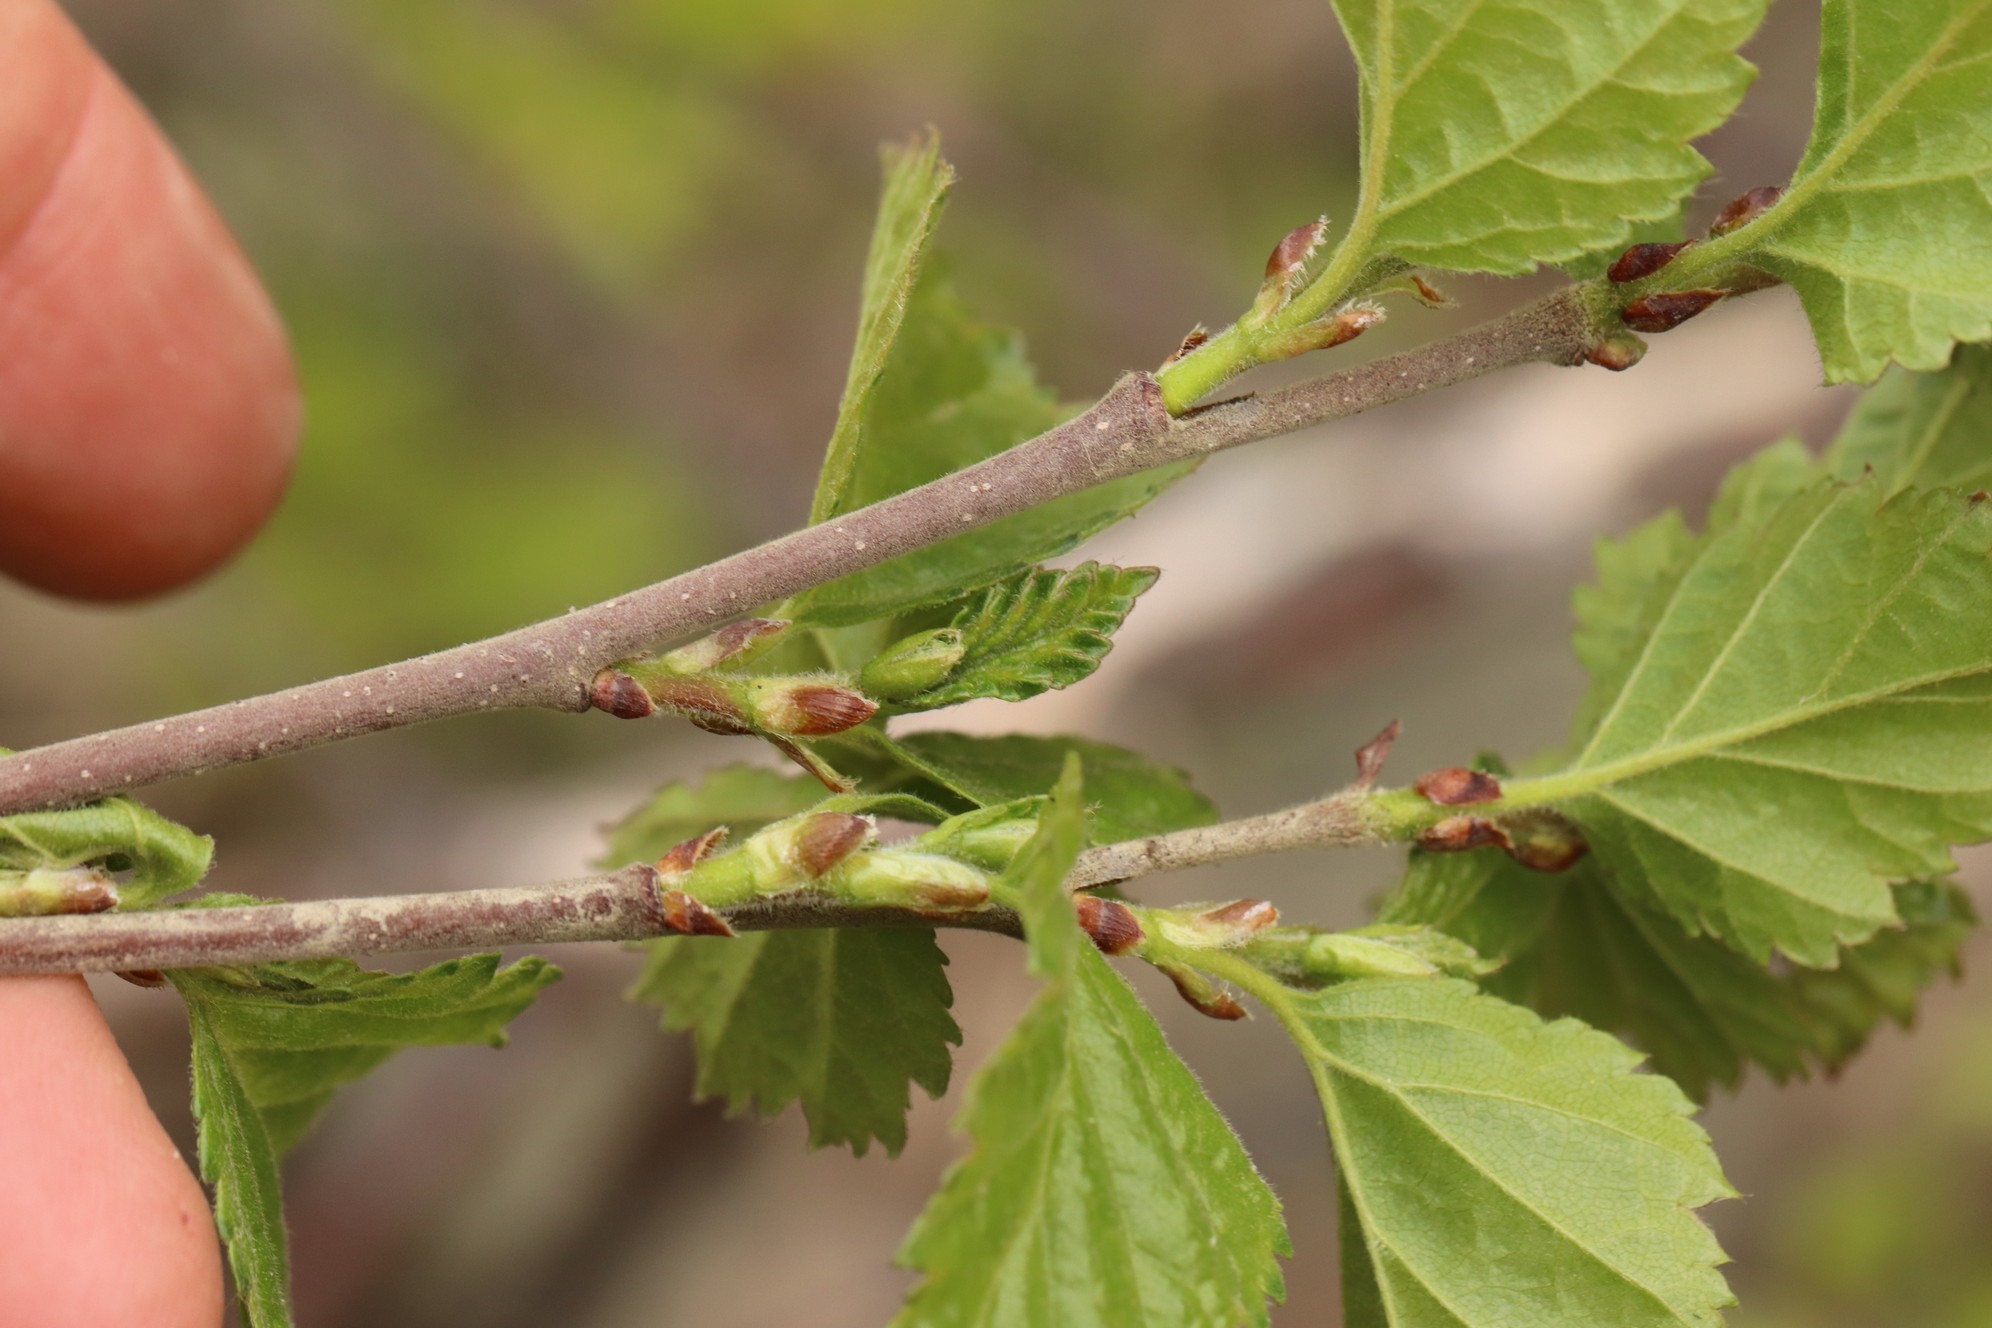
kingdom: Plantae
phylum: Tracheophyta
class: Magnoliopsida
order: Fagales
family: Betulaceae
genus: Betula
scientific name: Betula pubescens
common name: Downy birch
